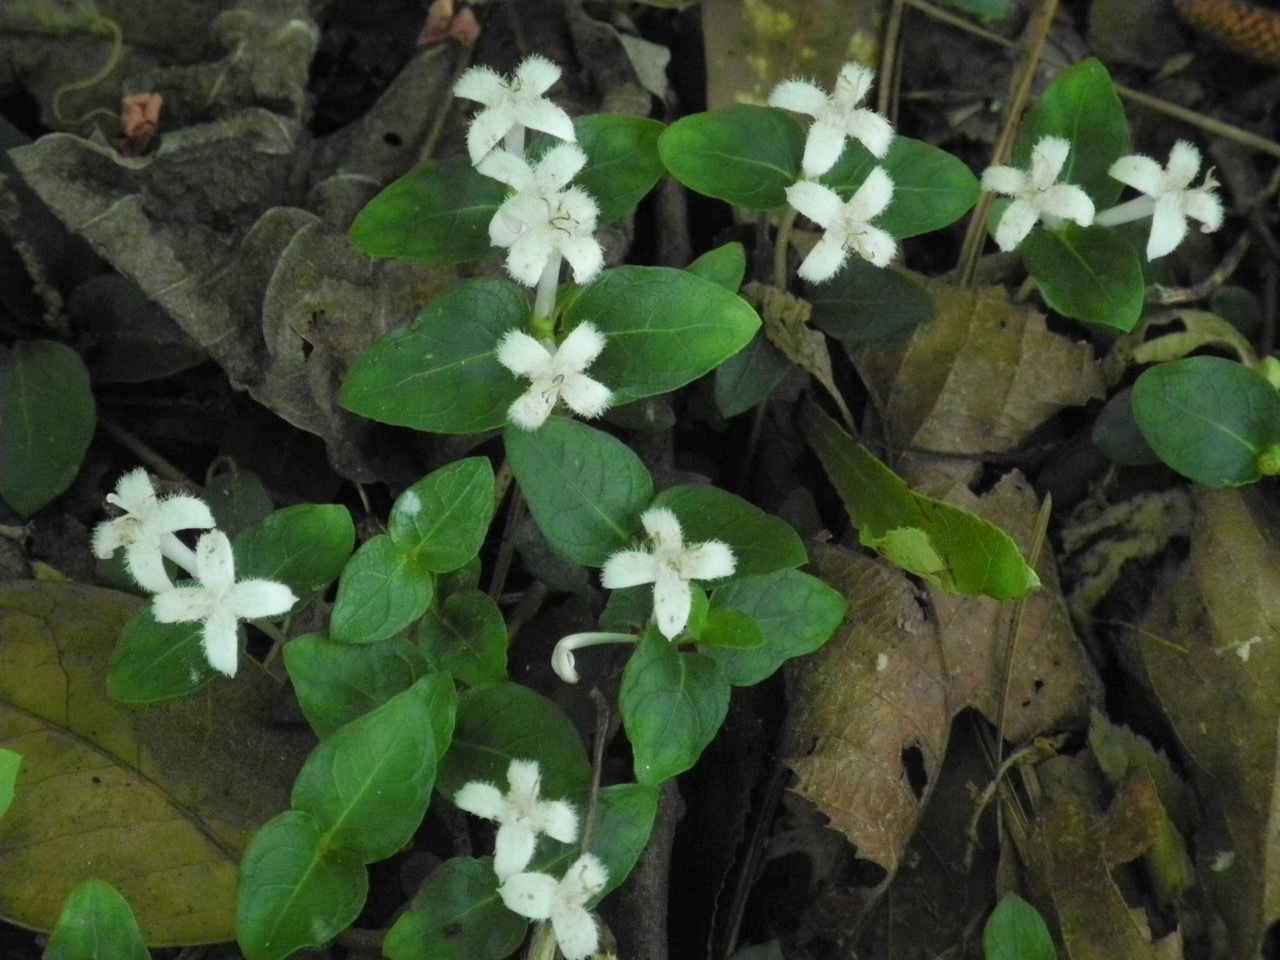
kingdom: Plantae
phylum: Tracheophyta
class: Magnoliopsida
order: Gentianales
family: Rubiaceae
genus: Mitchella
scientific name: Mitchella repens
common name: Partridge-berry
